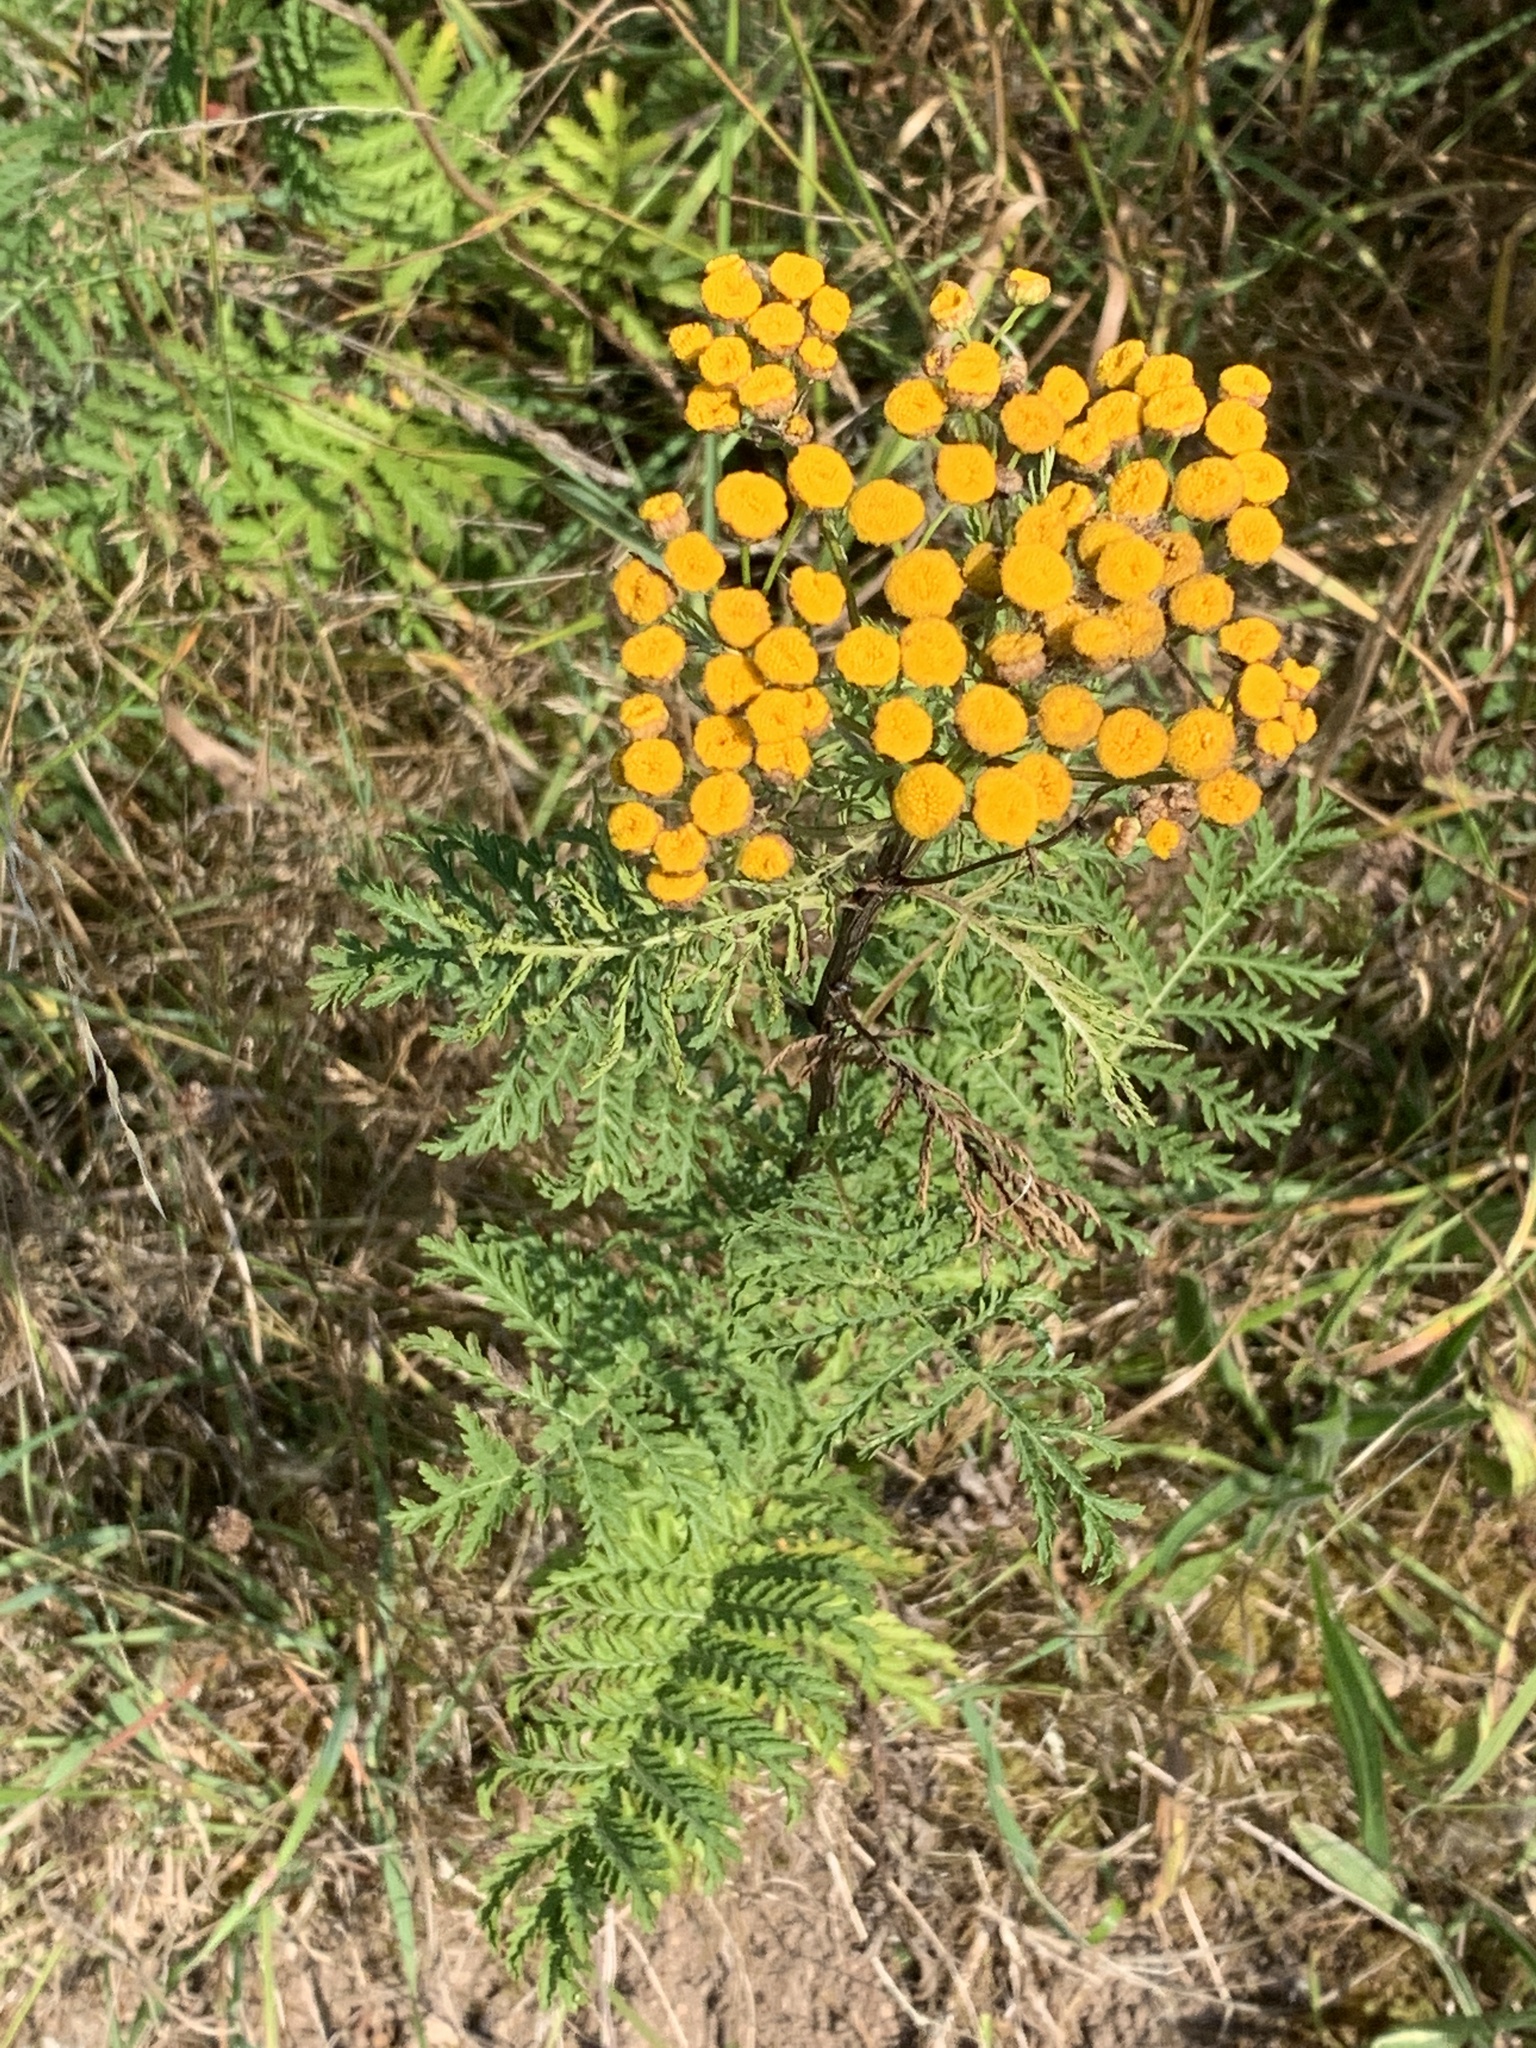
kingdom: Plantae
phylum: Tracheophyta
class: Magnoliopsida
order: Asterales
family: Asteraceae
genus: Tanacetum
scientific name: Tanacetum vulgare
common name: Common tansy
